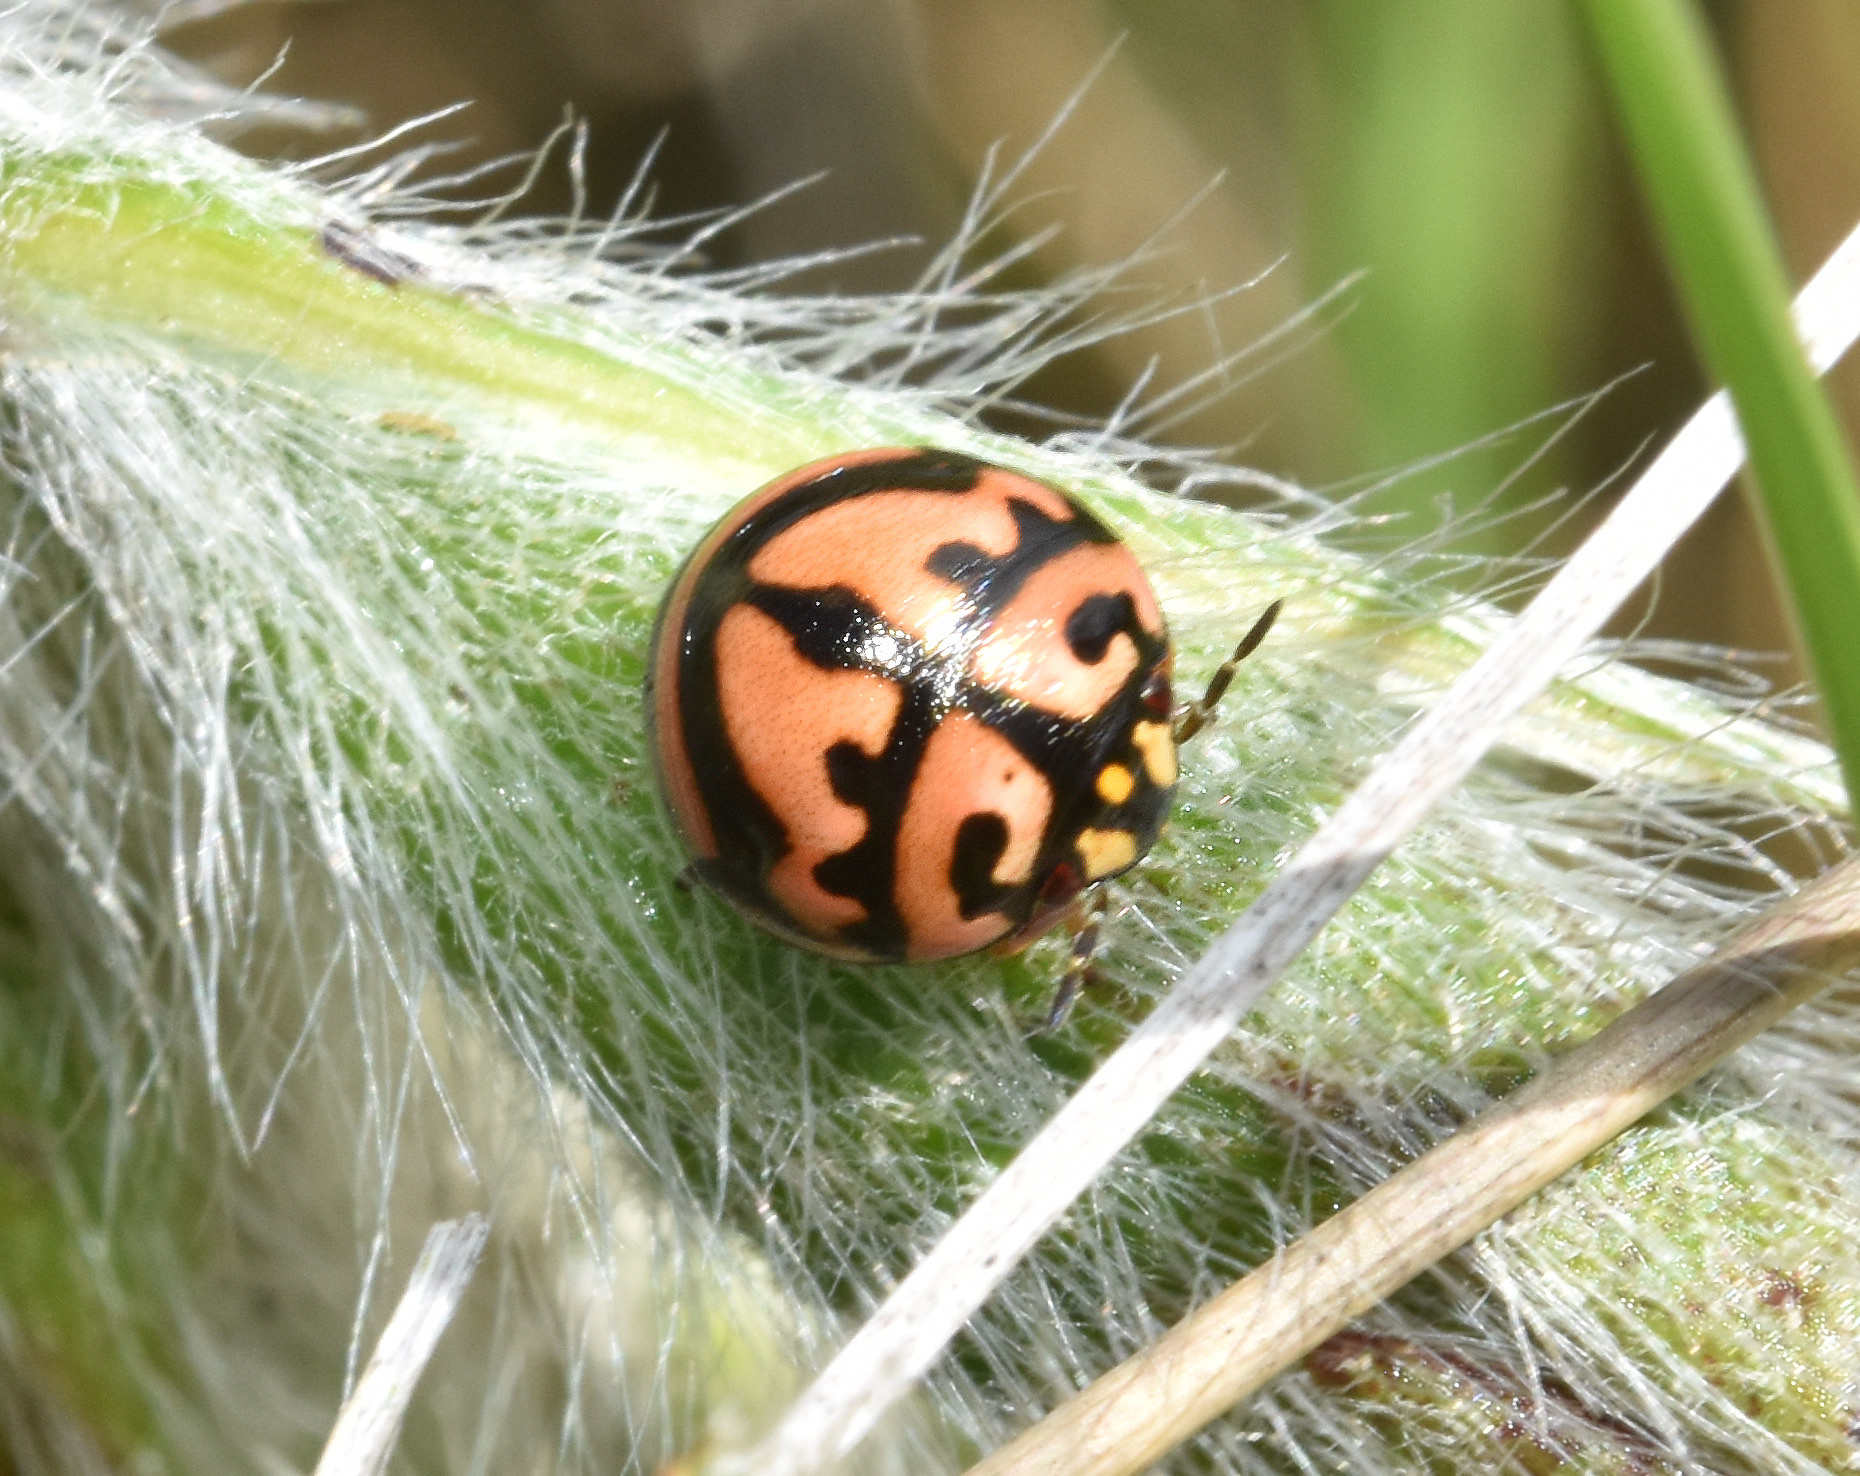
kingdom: Animalia
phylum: Arthropoda
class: Insecta
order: Hemiptera
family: Scutelleridae
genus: Sphaerocoris
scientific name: Sphaerocoris
